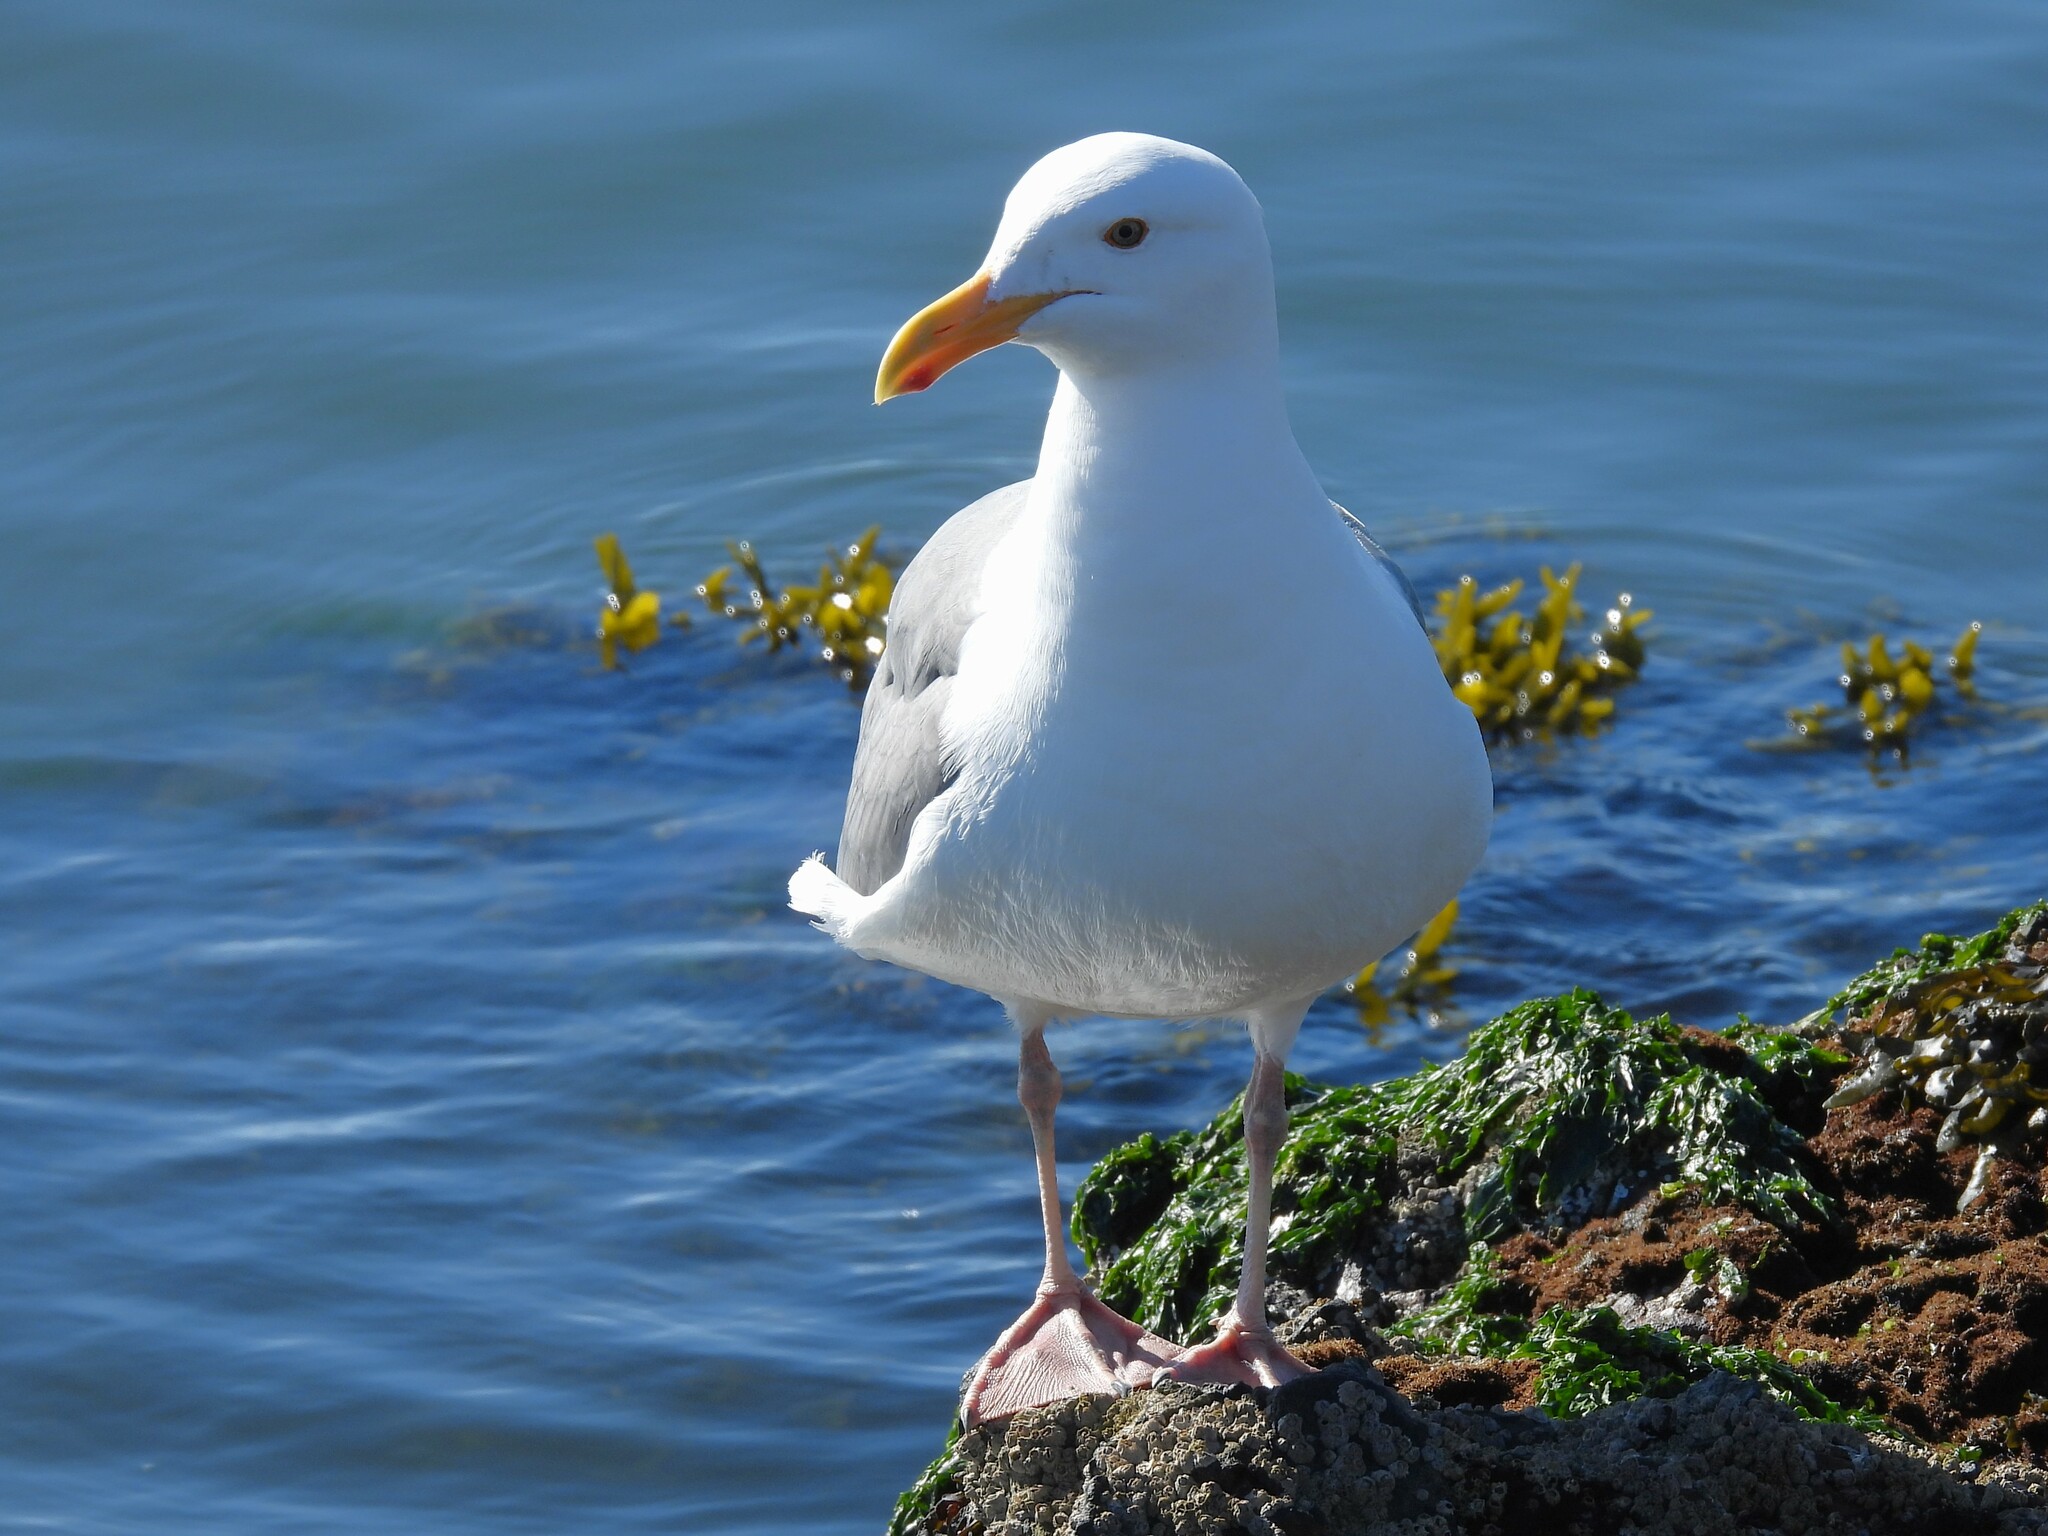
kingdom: Animalia
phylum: Chordata
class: Aves
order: Charadriiformes
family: Laridae
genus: Larus
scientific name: Larus occidentalis
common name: Western gull
